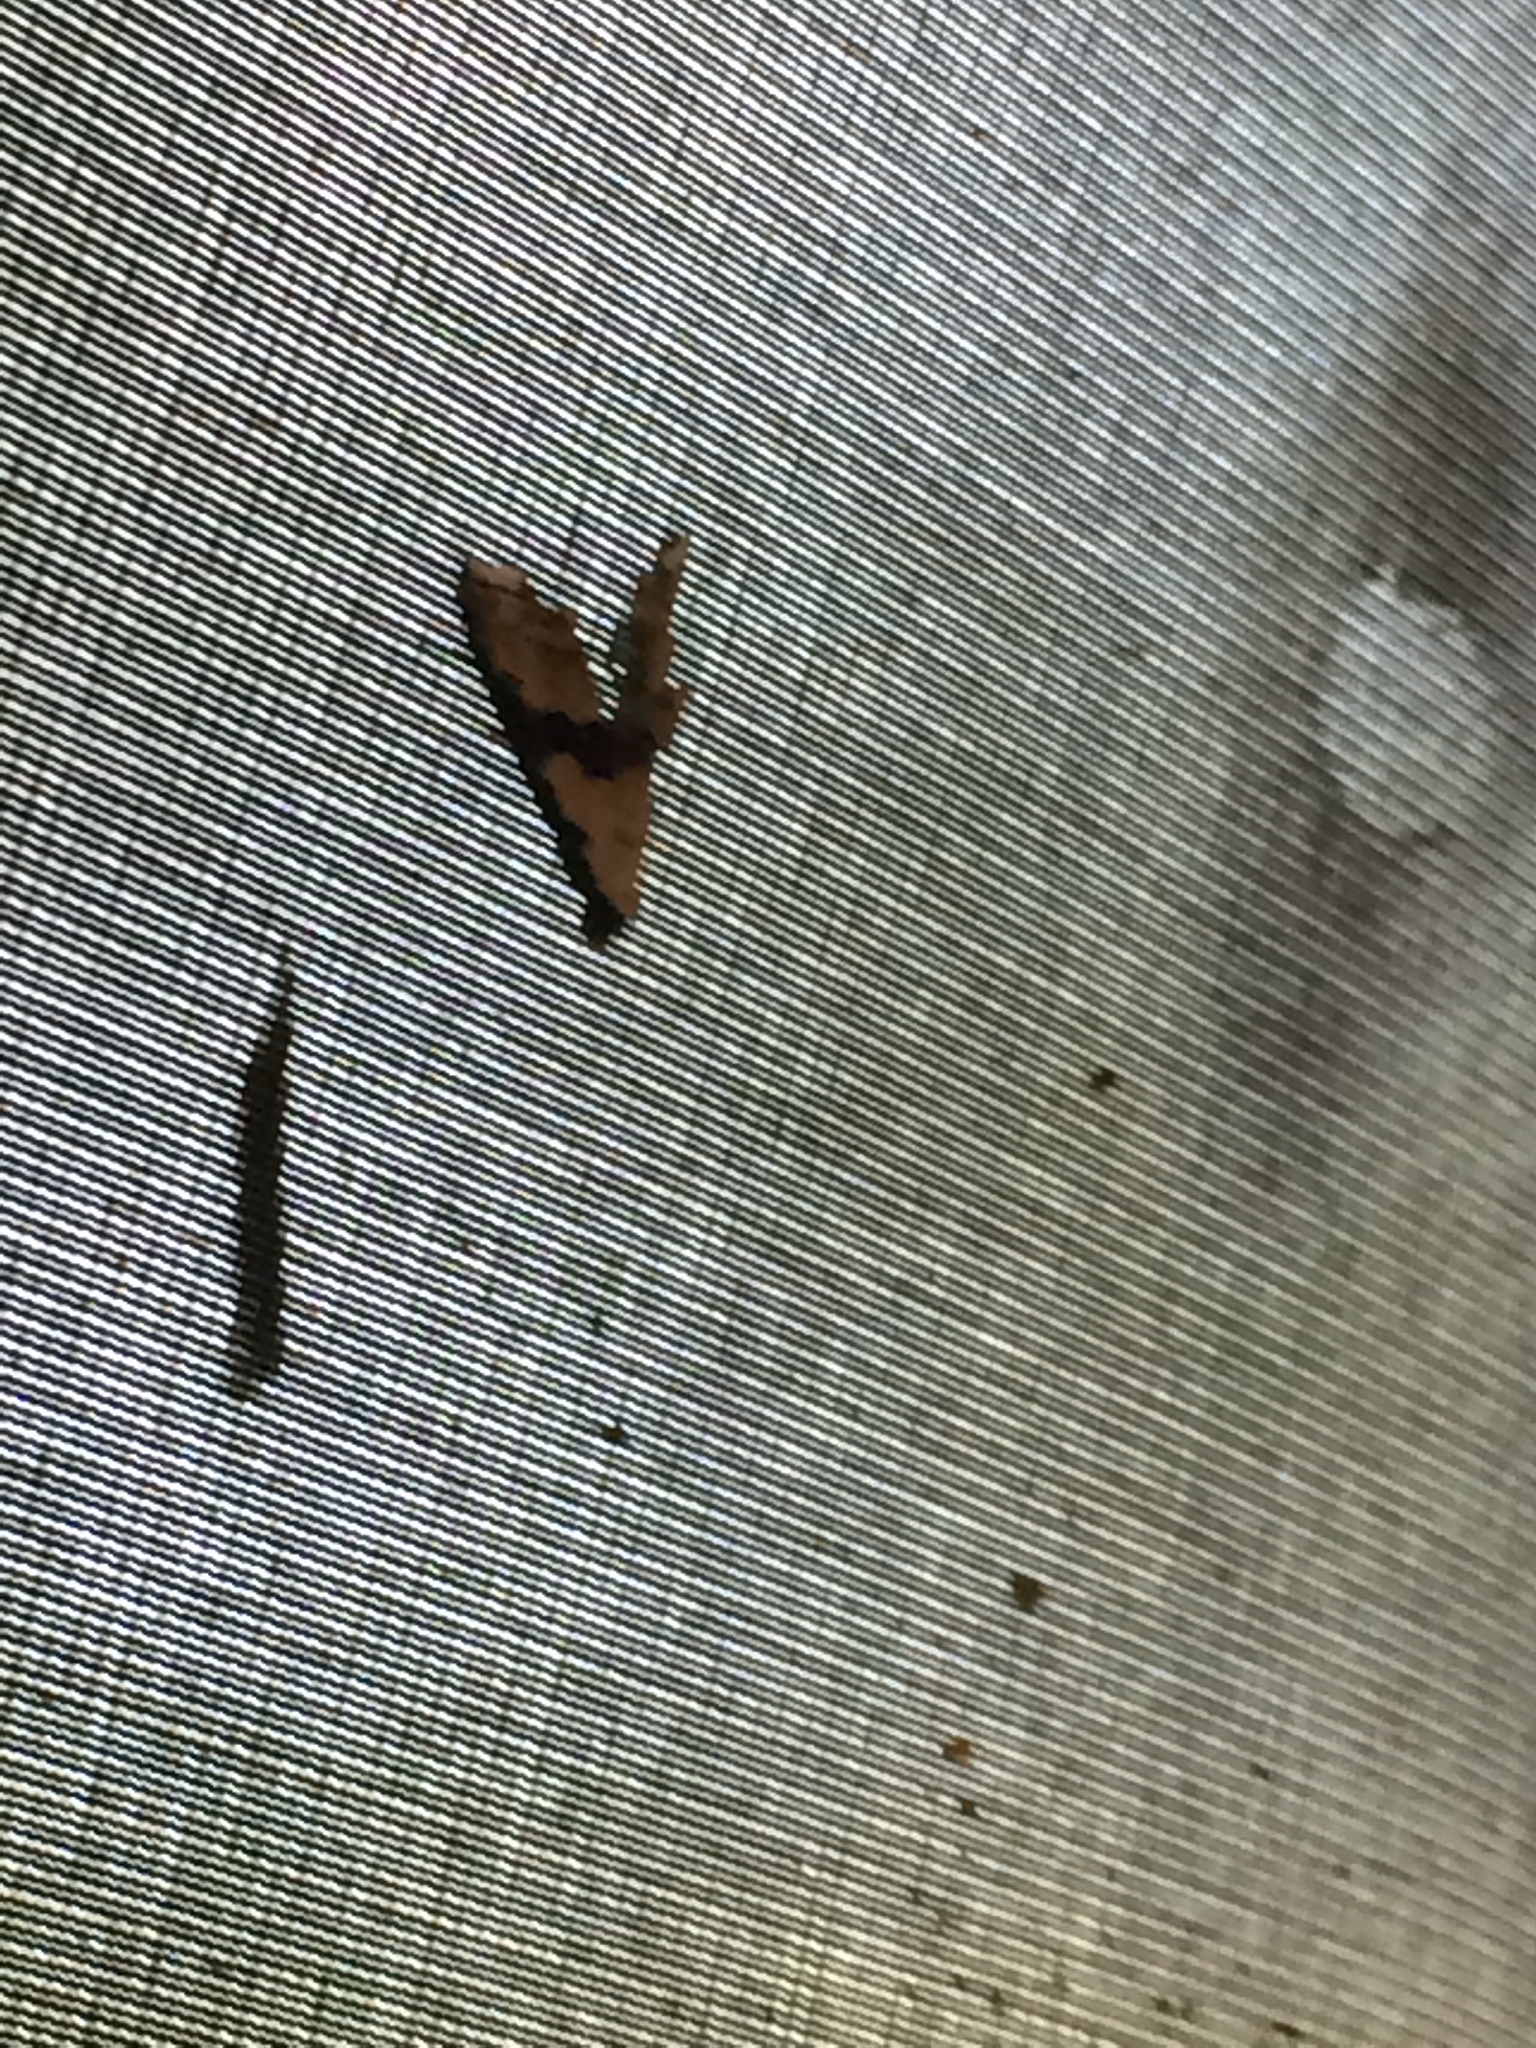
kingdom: Animalia
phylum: Arthropoda
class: Insecta
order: Lepidoptera
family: Noctuidae
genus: Nigetia
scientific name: Nigetia formosalis
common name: Thin-winged owlet
